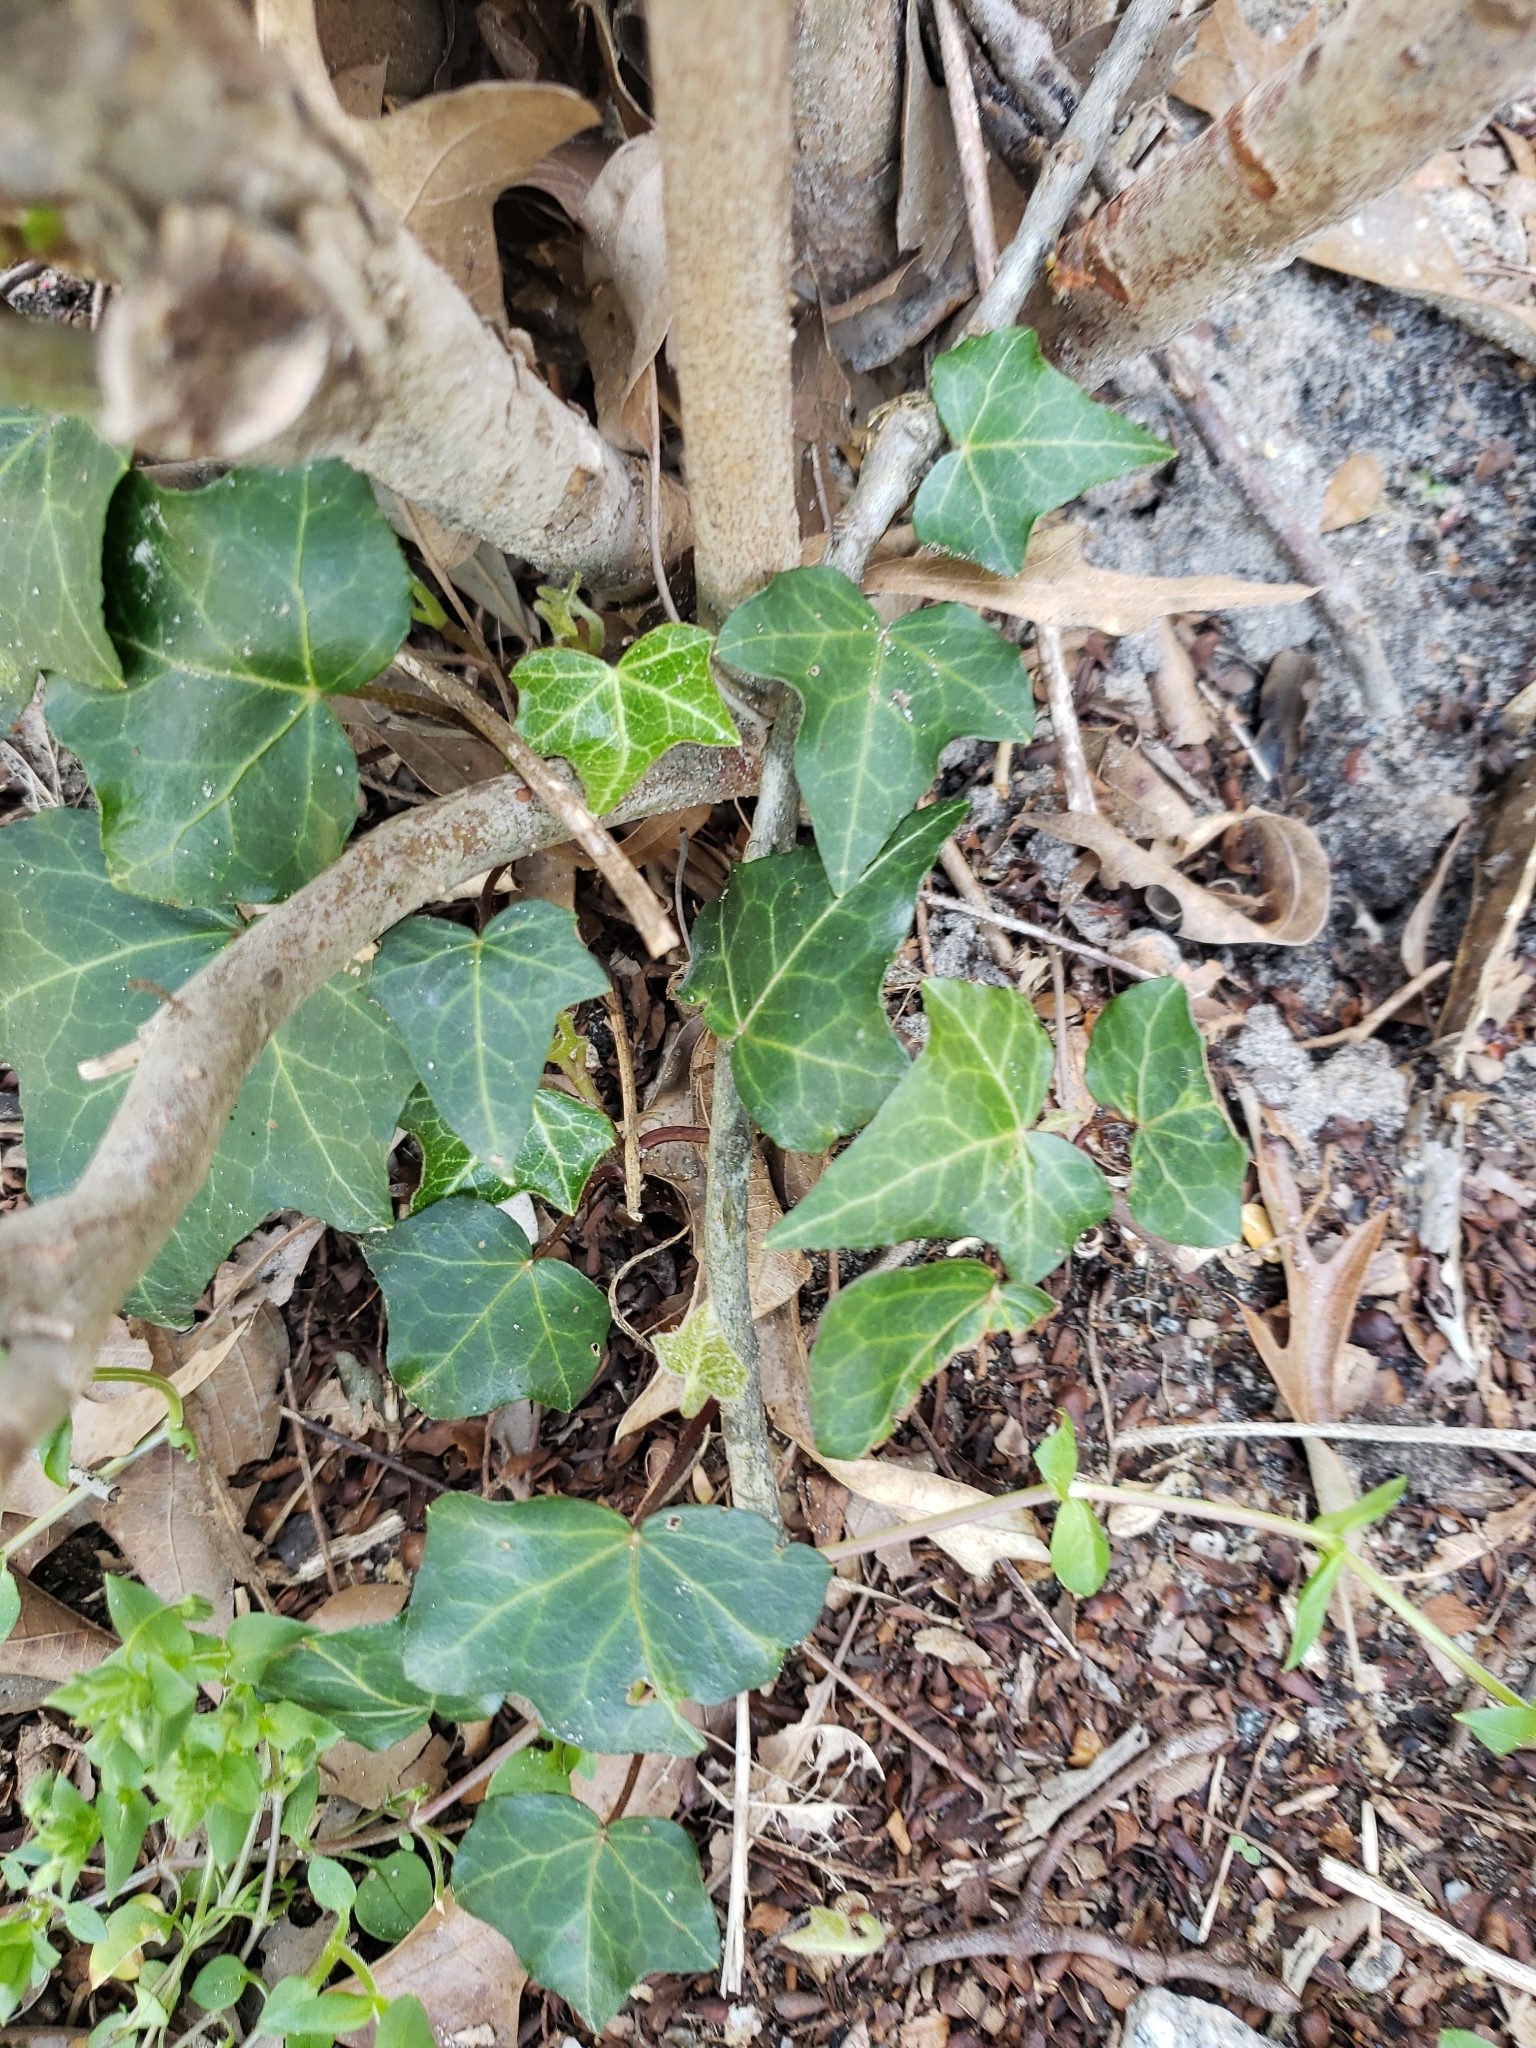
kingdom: Plantae
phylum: Tracheophyta
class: Magnoliopsida
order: Apiales
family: Araliaceae
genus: Hedera
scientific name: Hedera helix
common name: Ivy
